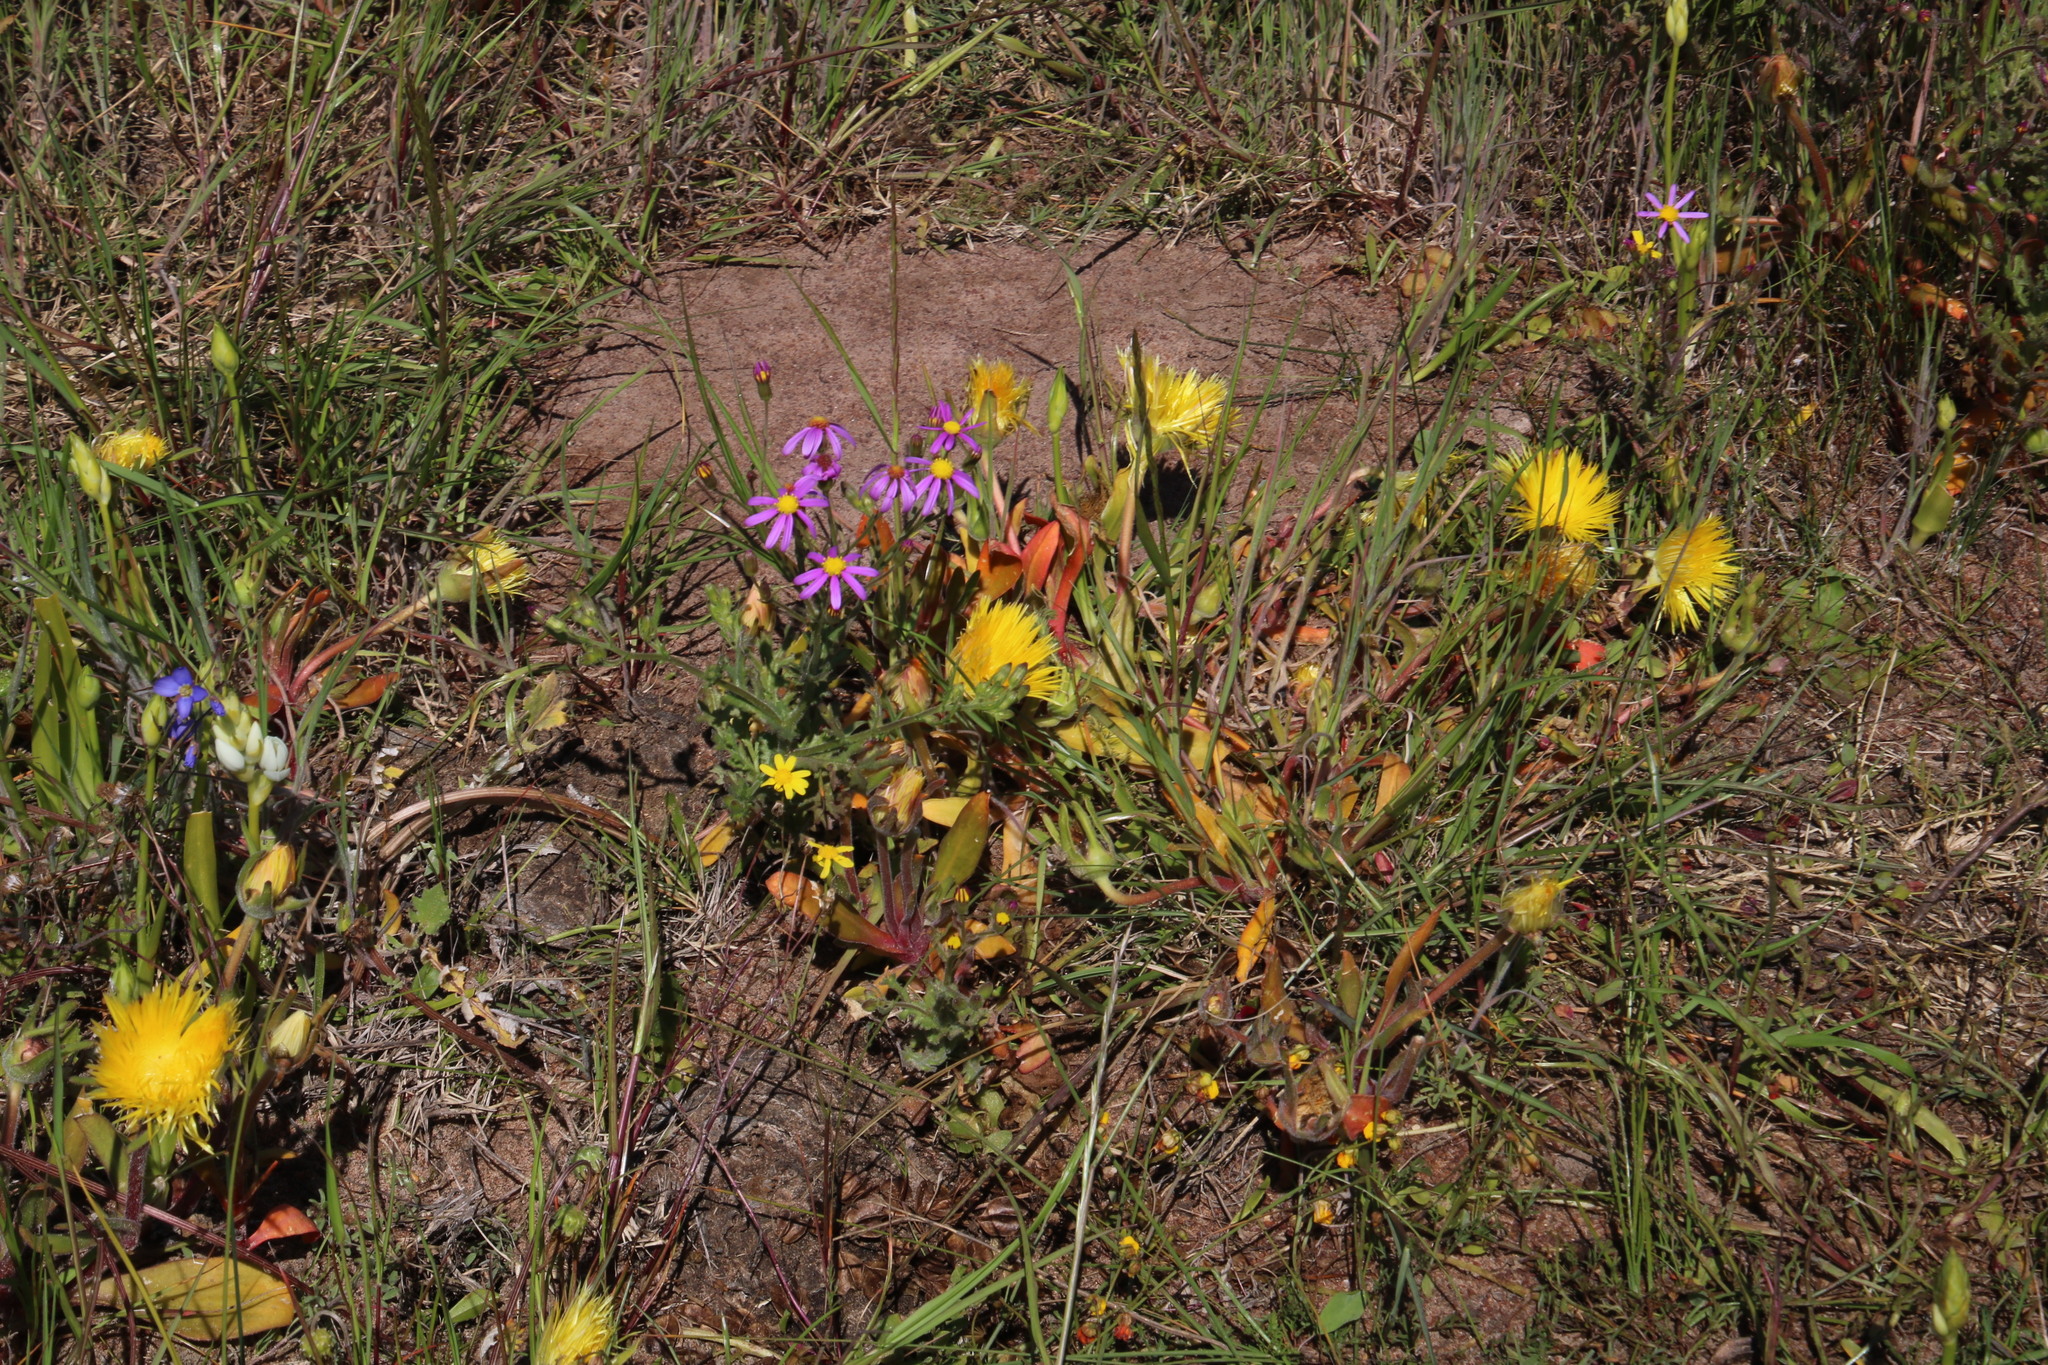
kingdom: Plantae
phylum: Tracheophyta
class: Magnoliopsida
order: Caryophyllales
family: Aizoaceae
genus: Carpanthea
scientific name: Carpanthea pomeridiana
